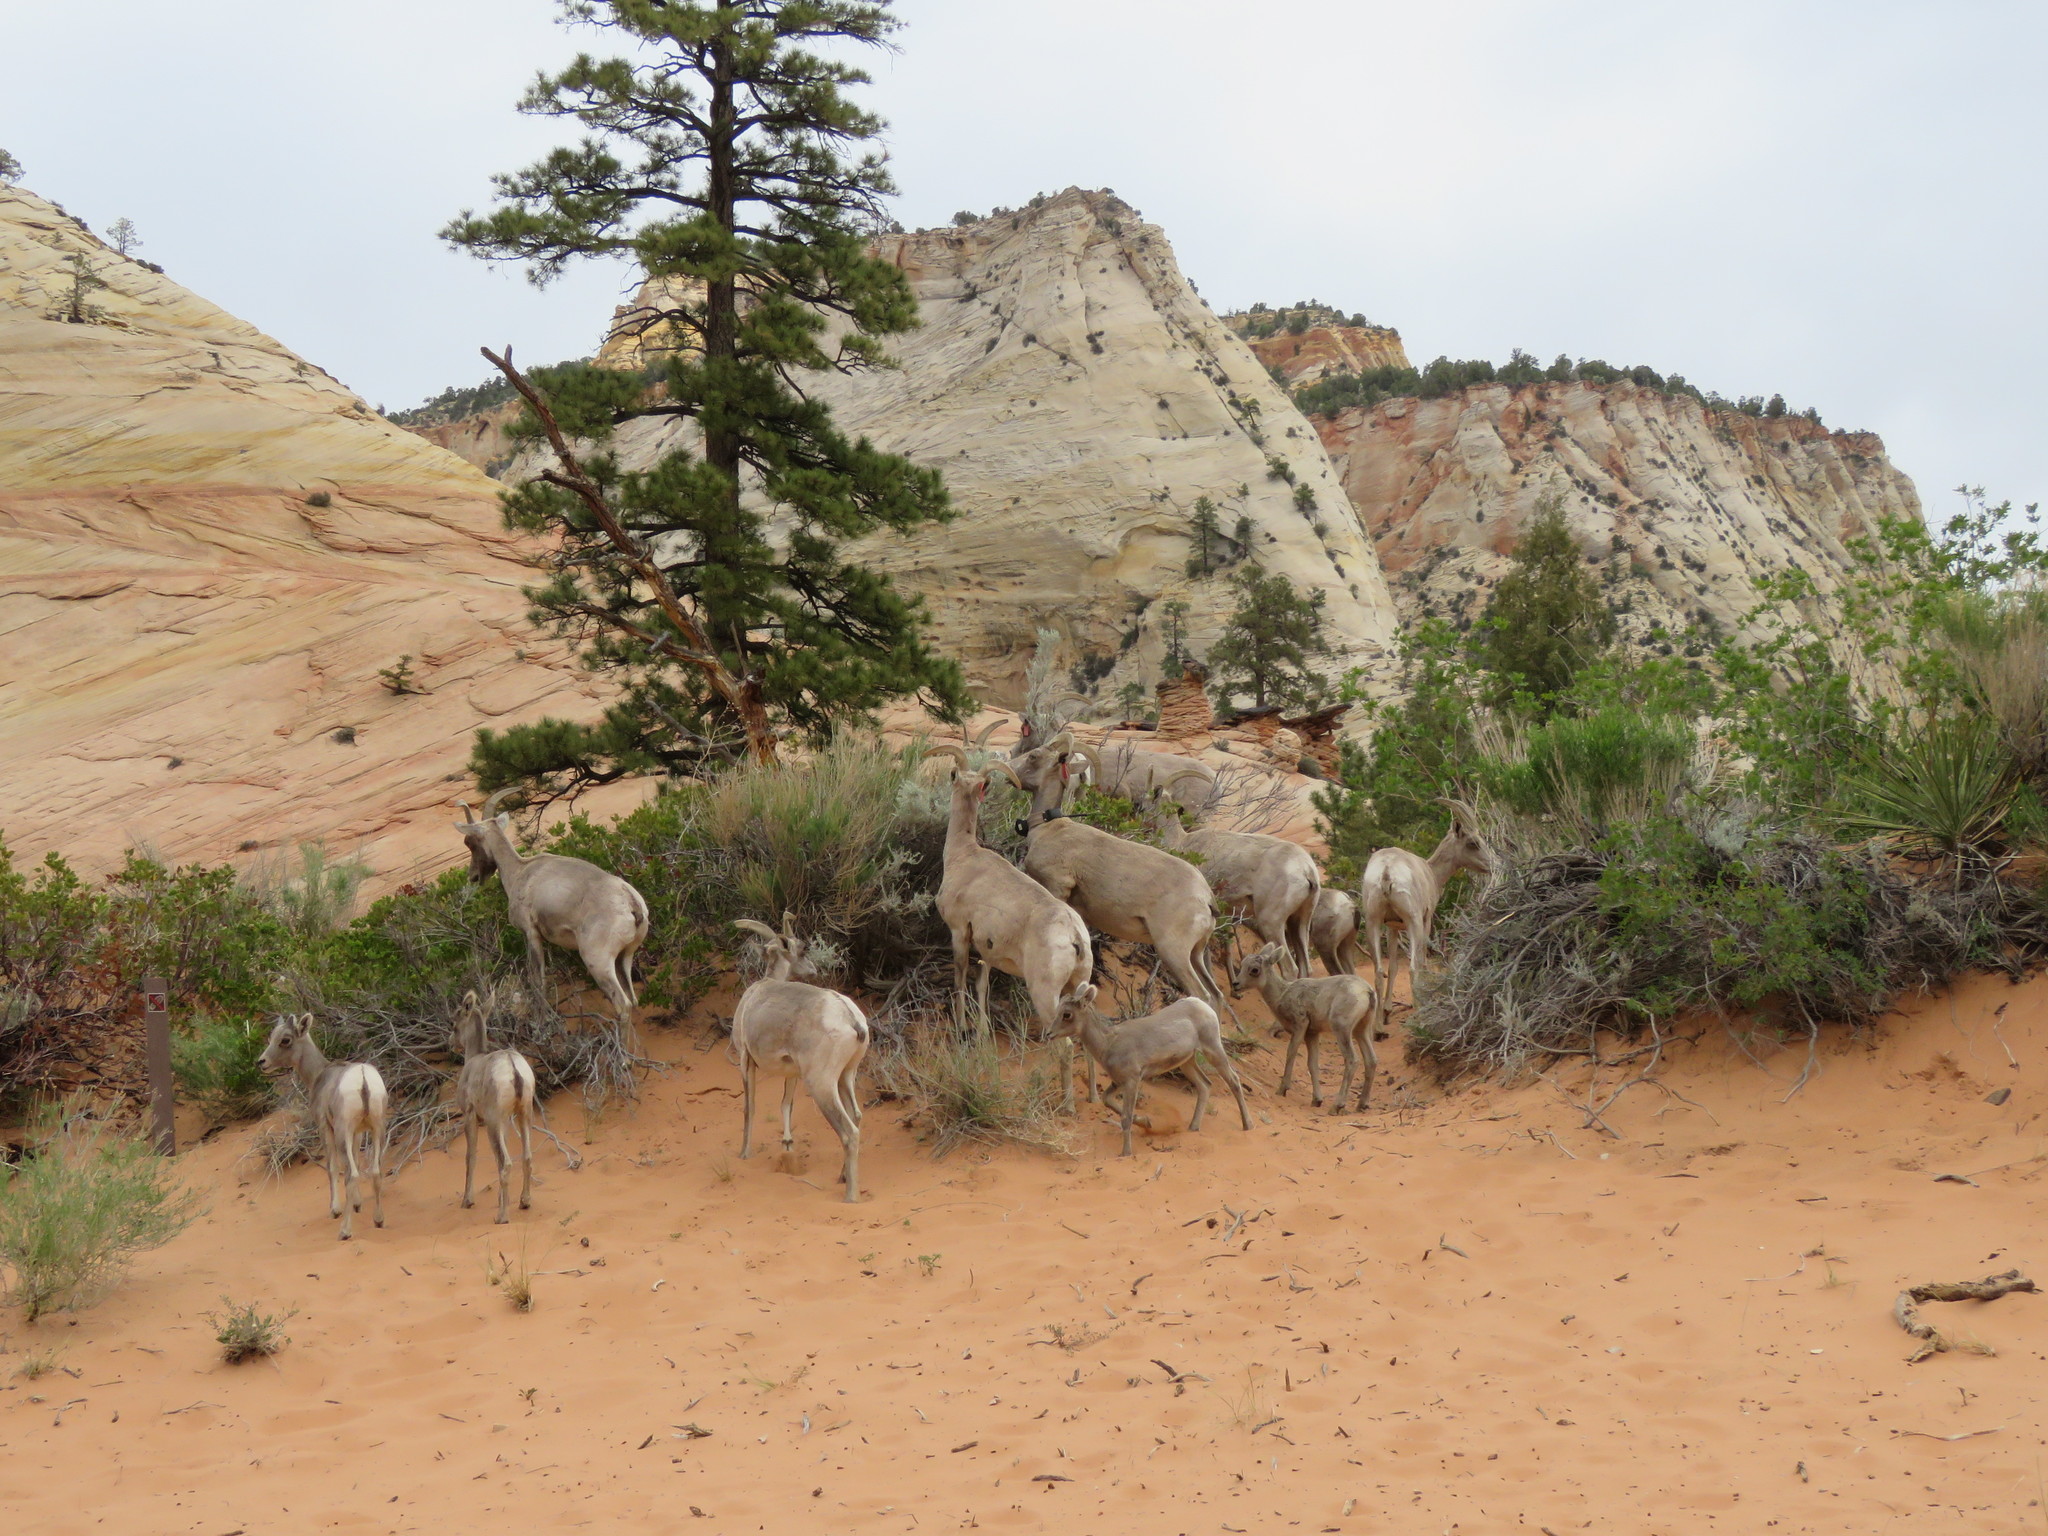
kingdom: Animalia
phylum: Chordata
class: Mammalia
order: Artiodactyla
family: Bovidae
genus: Ovis
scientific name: Ovis canadensis
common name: Bighorn sheep
